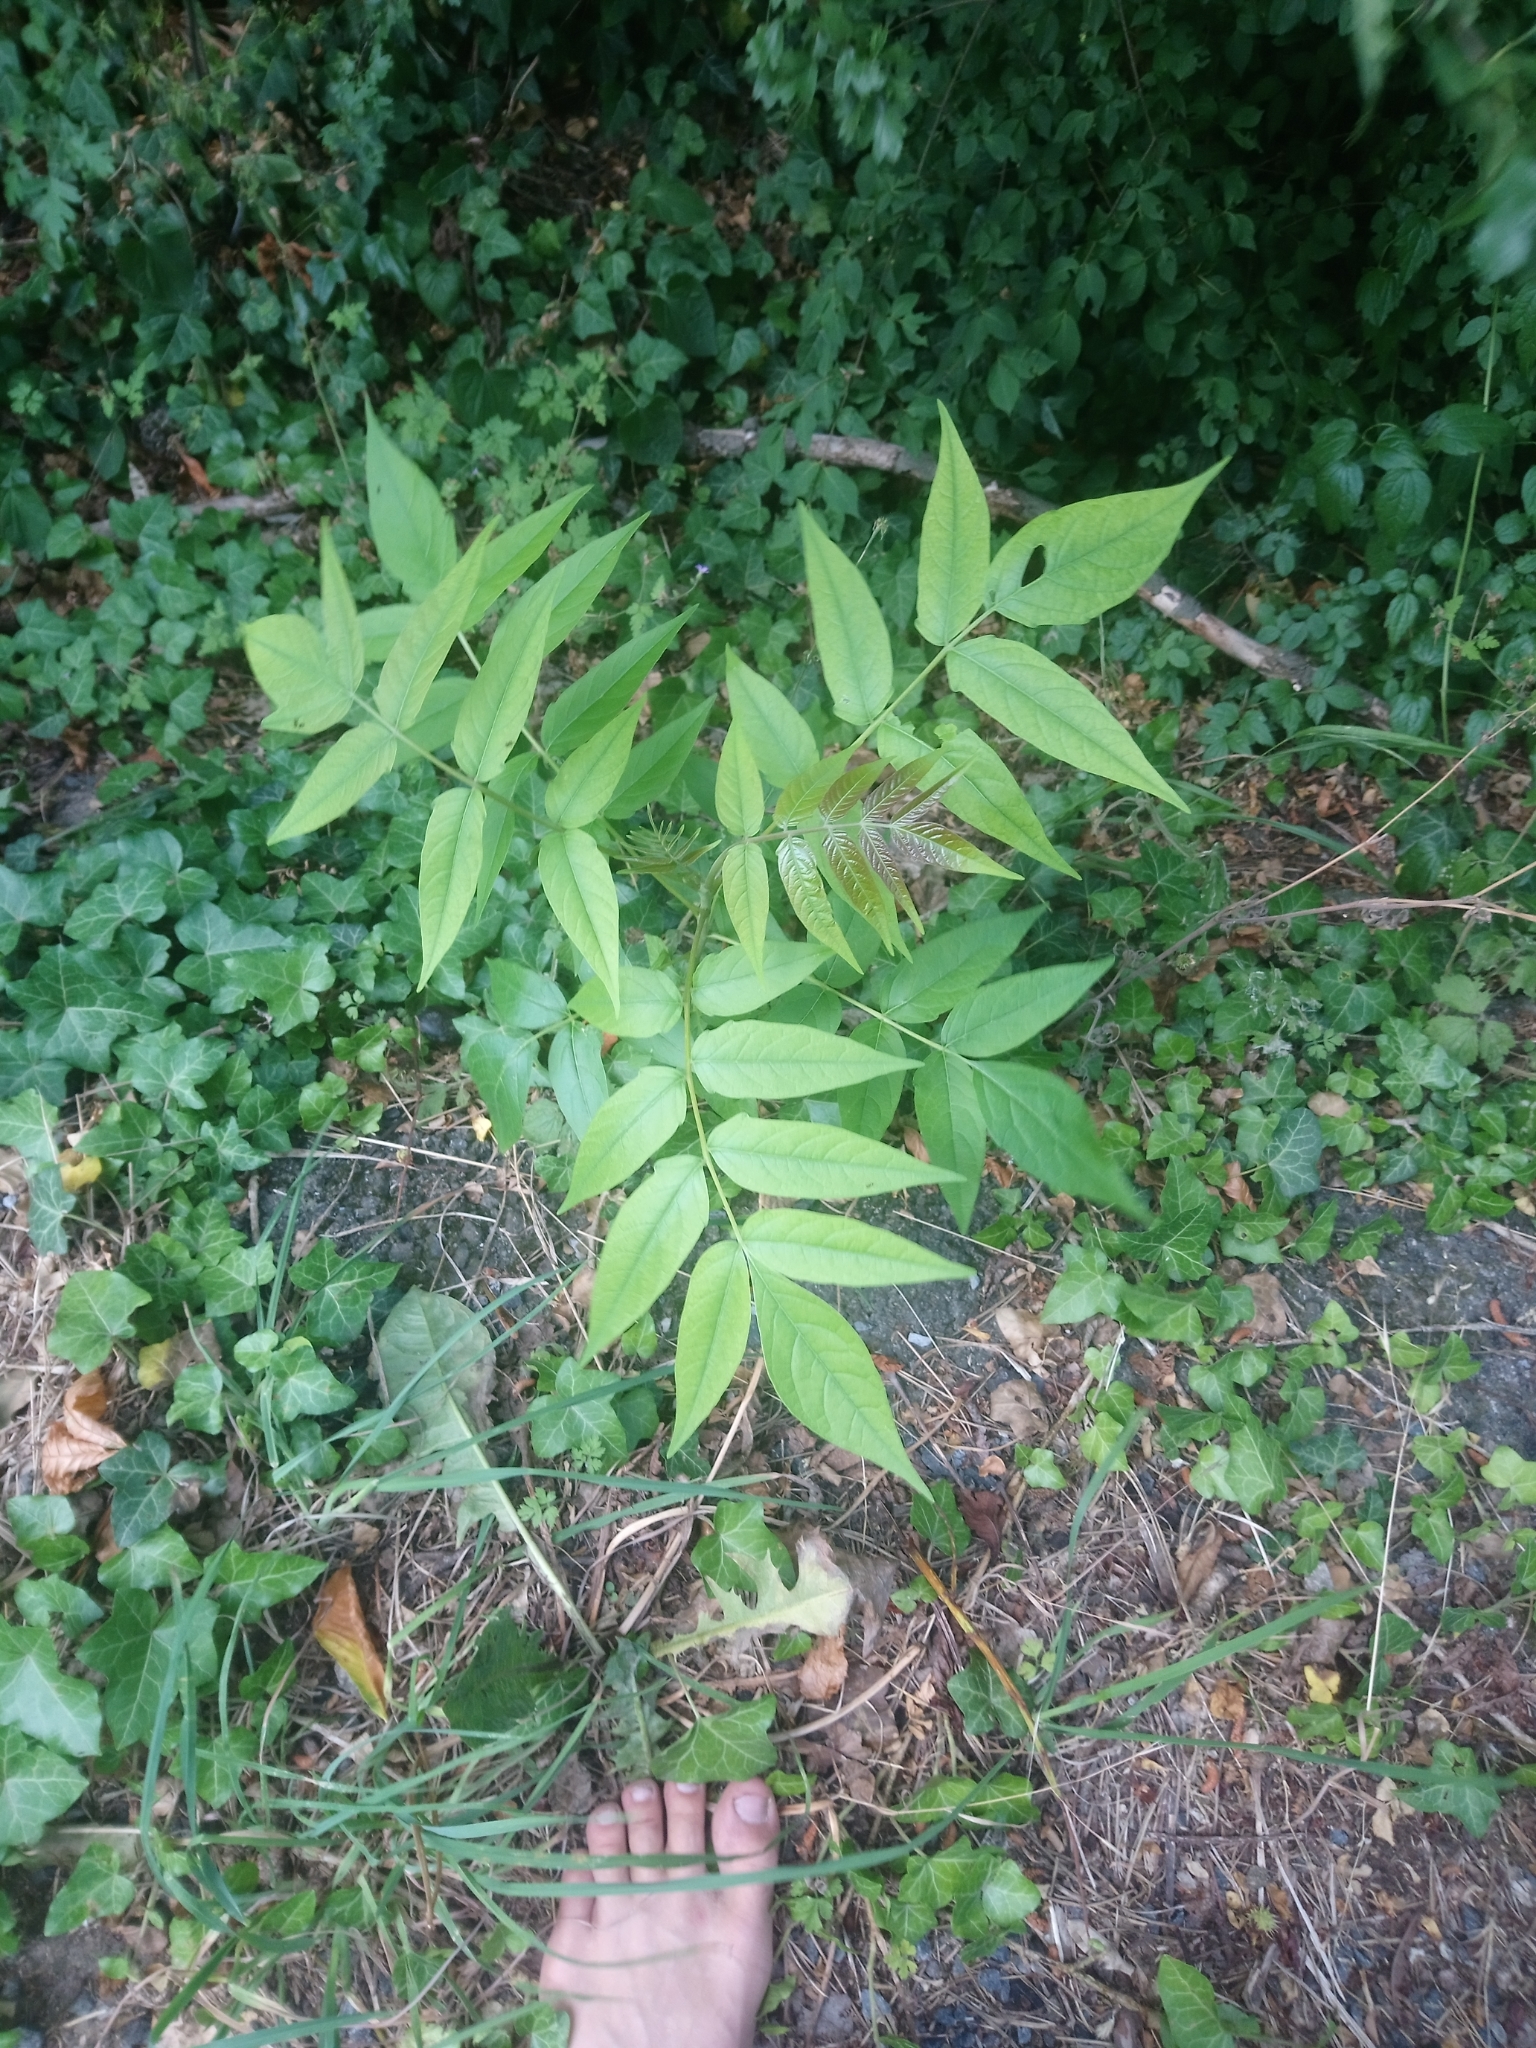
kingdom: Plantae
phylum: Tracheophyta
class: Magnoliopsida
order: Sapindales
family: Simaroubaceae
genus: Ailanthus
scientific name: Ailanthus altissima
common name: Tree-of-heaven
